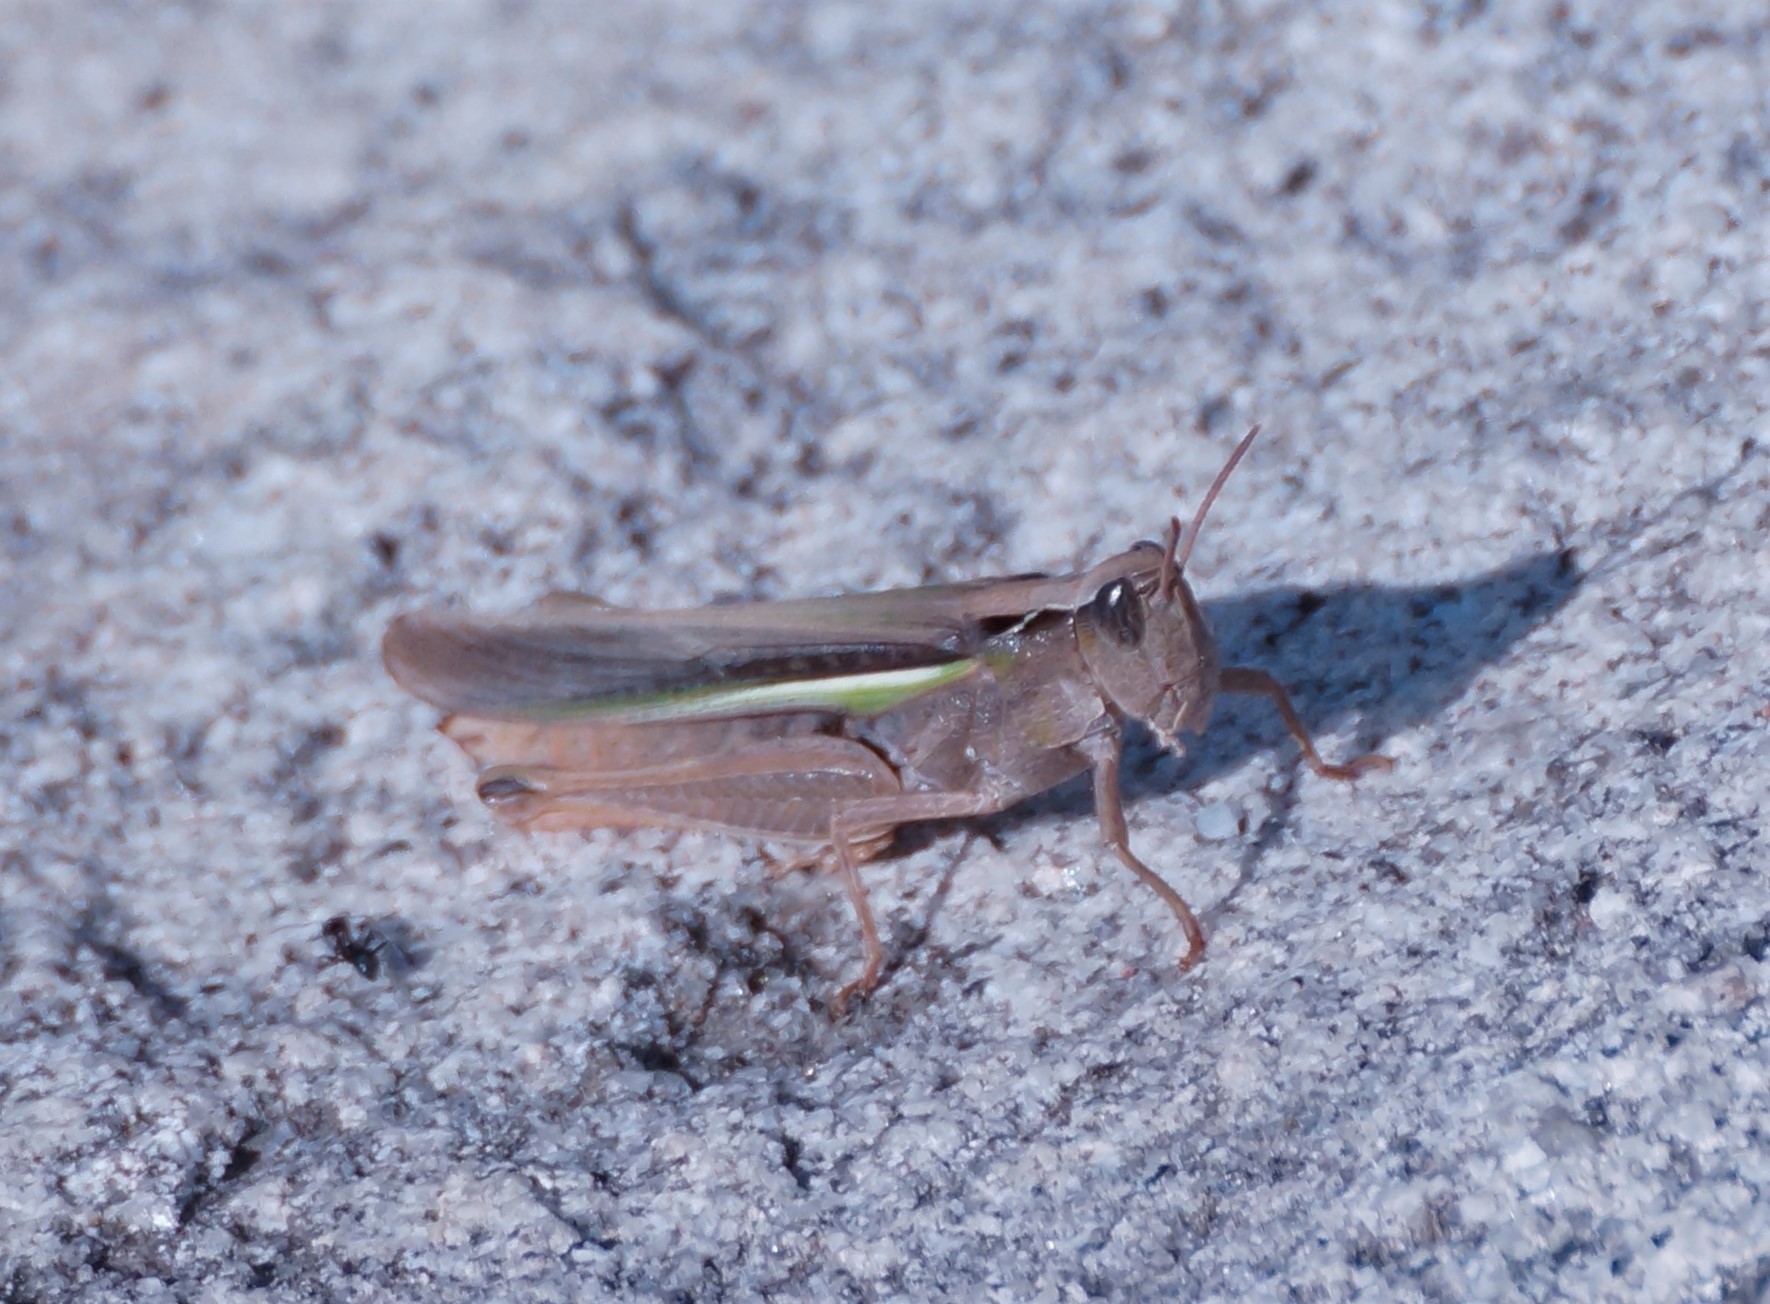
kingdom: Animalia
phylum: Arthropoda
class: Insecta
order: Orthoptera
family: Acrididae
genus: Schizobothrus
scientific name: Schizobothrus flavovittatus
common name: Disappearing grasshopper
